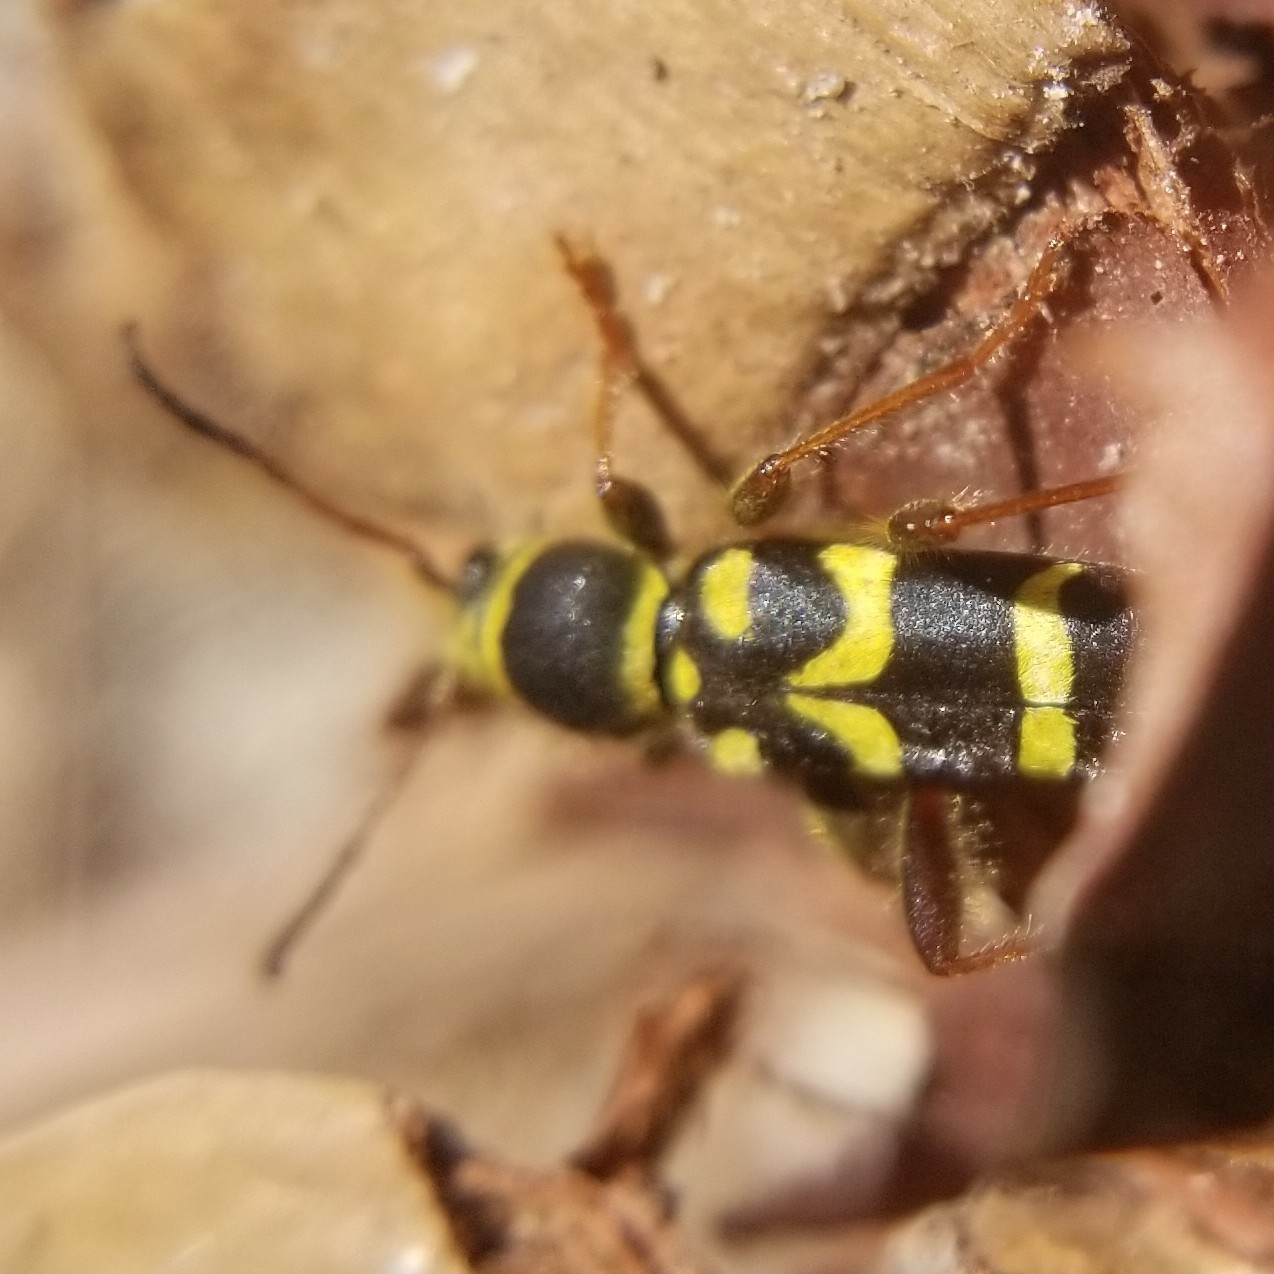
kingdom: Animalia
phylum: Arthropoda
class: Insecta
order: Coleoptera
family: Cerambycidae
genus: Clytus
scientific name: Clytus planifrons
